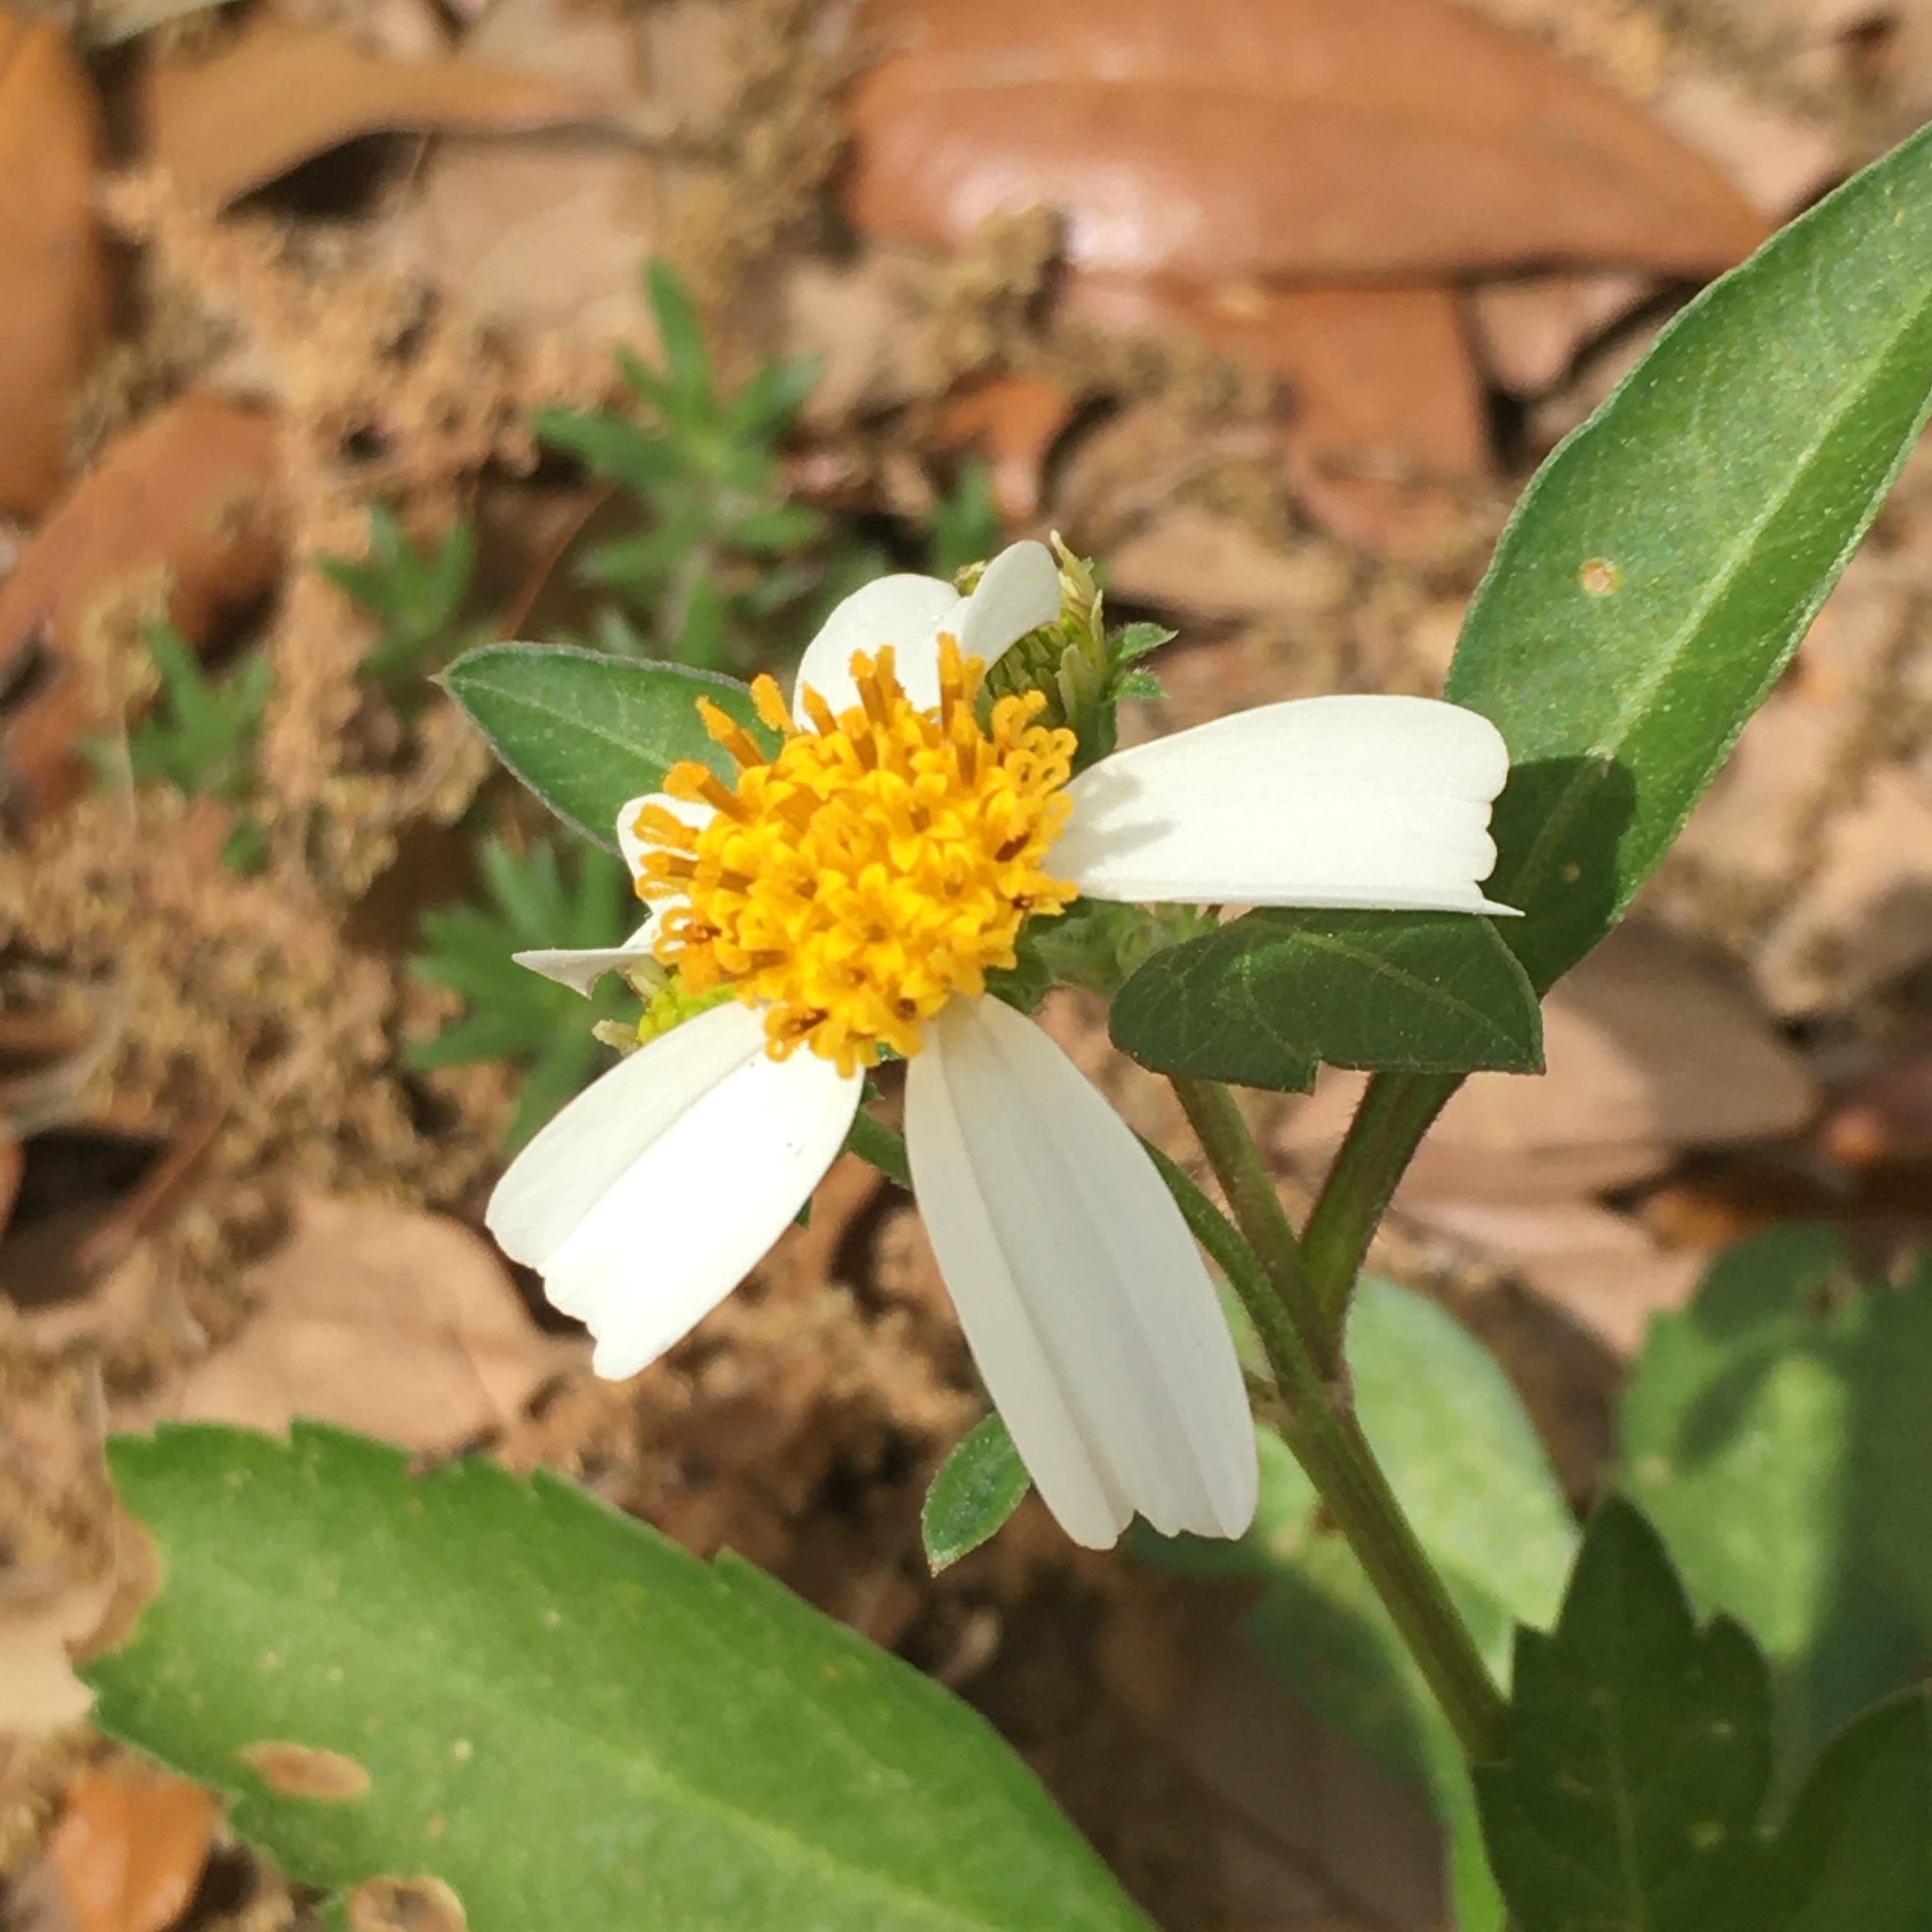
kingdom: Plantae
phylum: Tracheophyta
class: Magnoliopsida
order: Asterales
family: Asteraceae
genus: Bidens
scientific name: Bidens alba
